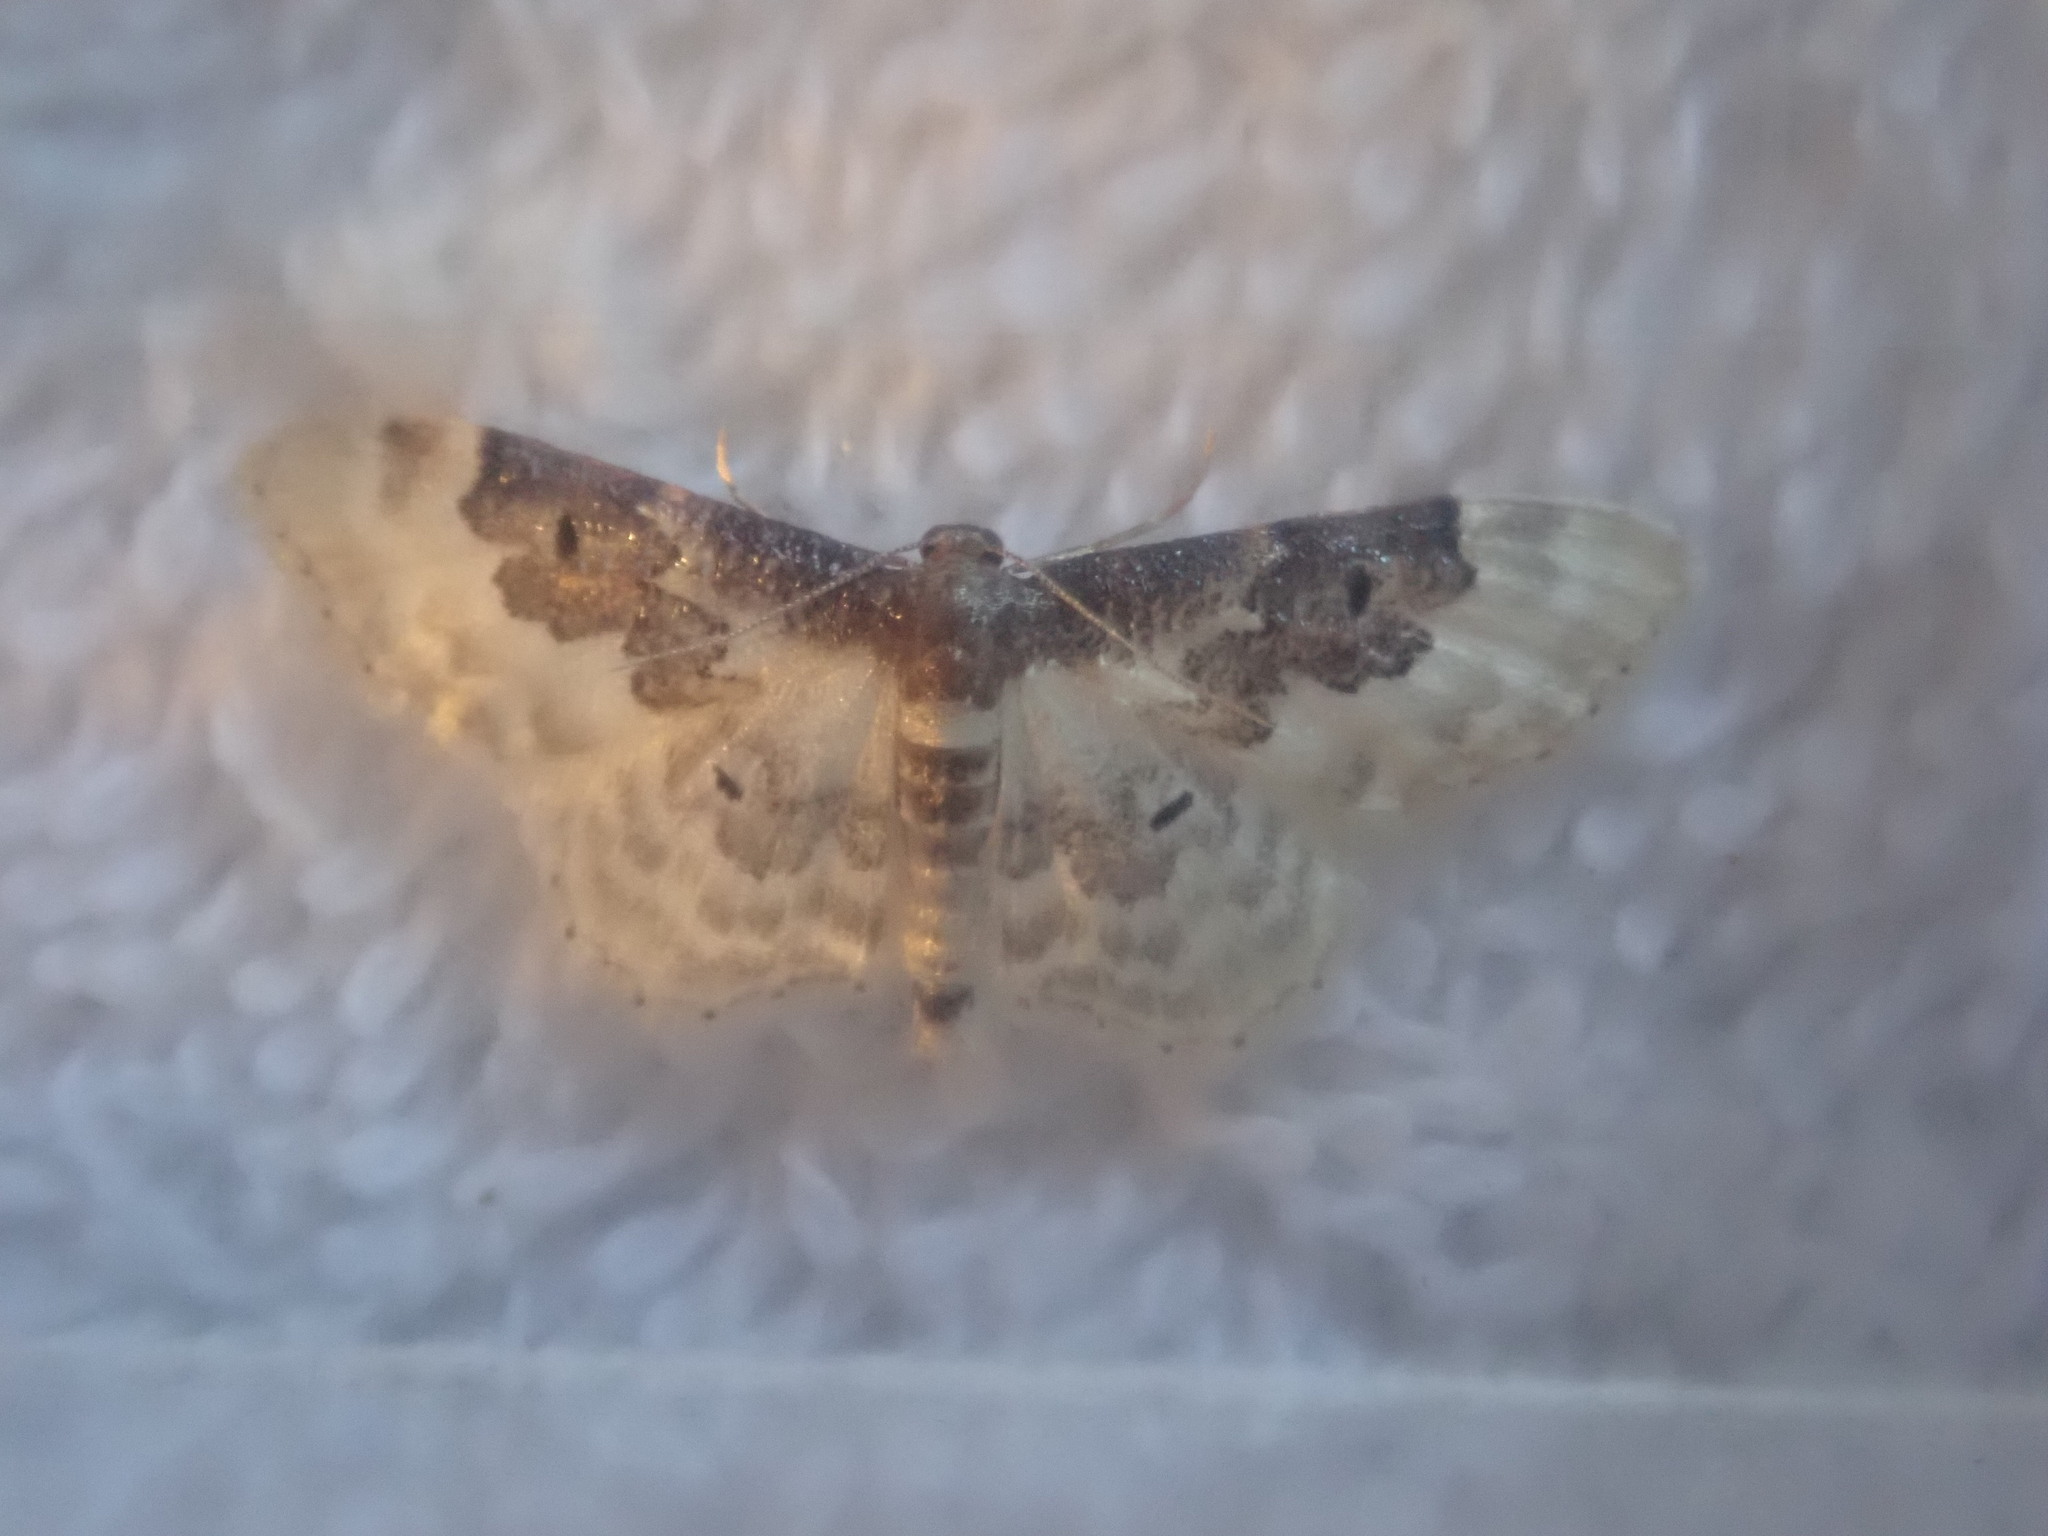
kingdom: Animalia
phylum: Arthropoda
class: Insecta
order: Lepidoptera
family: Geometridae
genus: Idaea
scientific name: Idaea rusticata
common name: Least carpet
